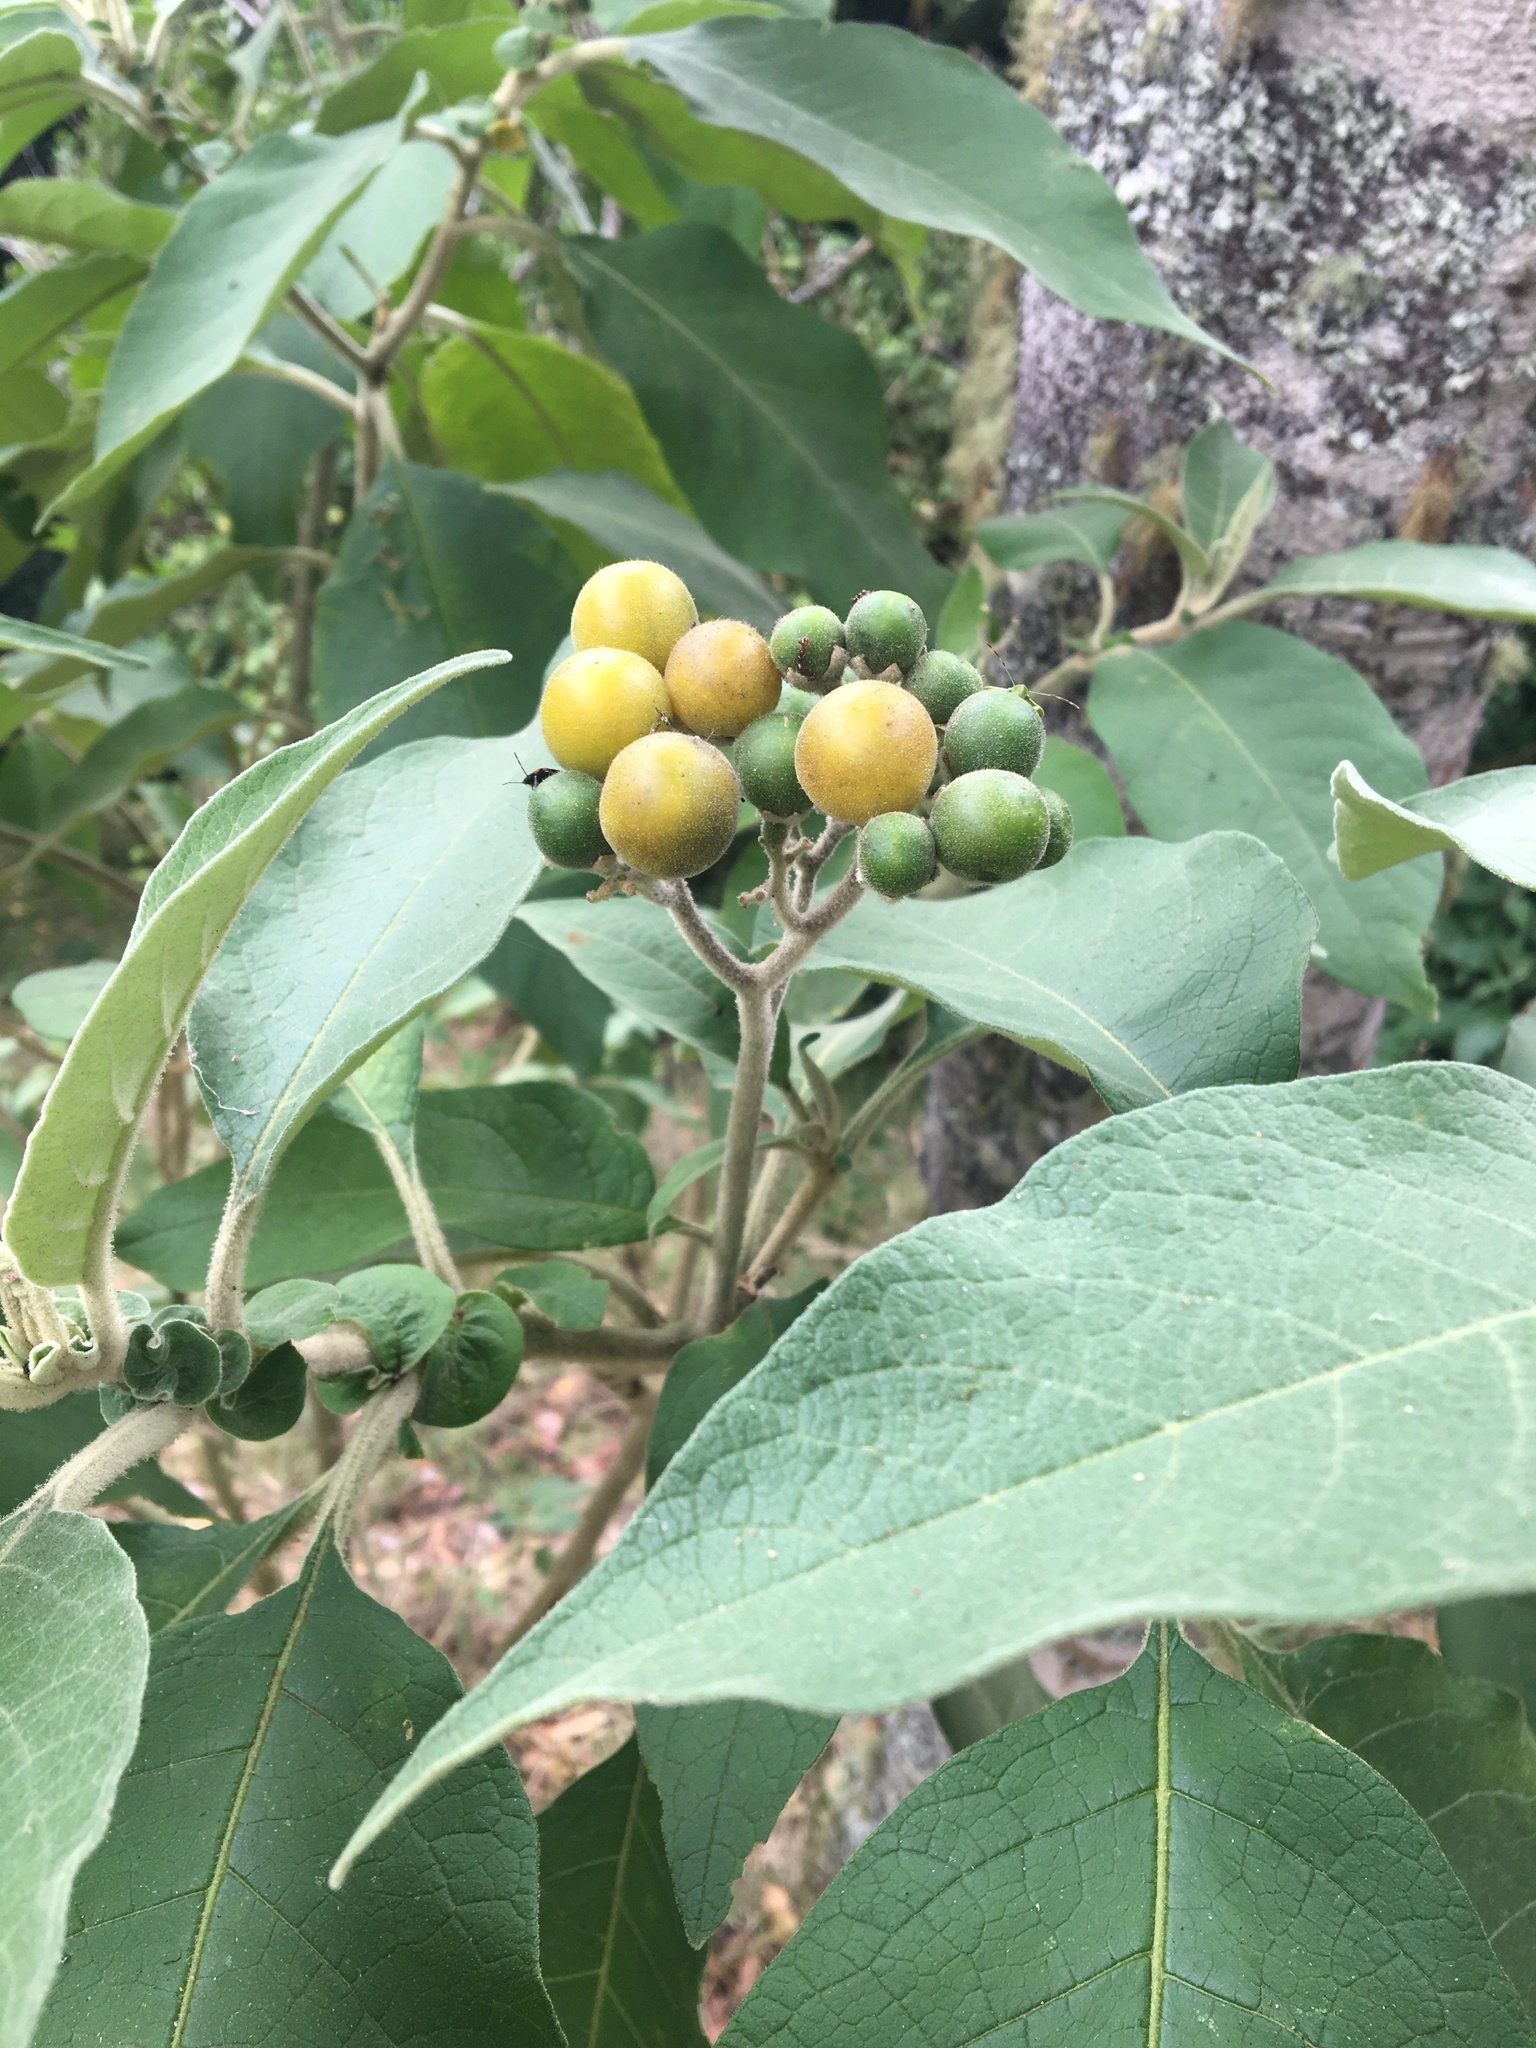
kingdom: Plantae
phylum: Tracheophyta
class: Magnoliopsida
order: Solanales
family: Solanaceae
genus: Solanum
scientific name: Solanum mauritianum
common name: Earleaf nightshade
